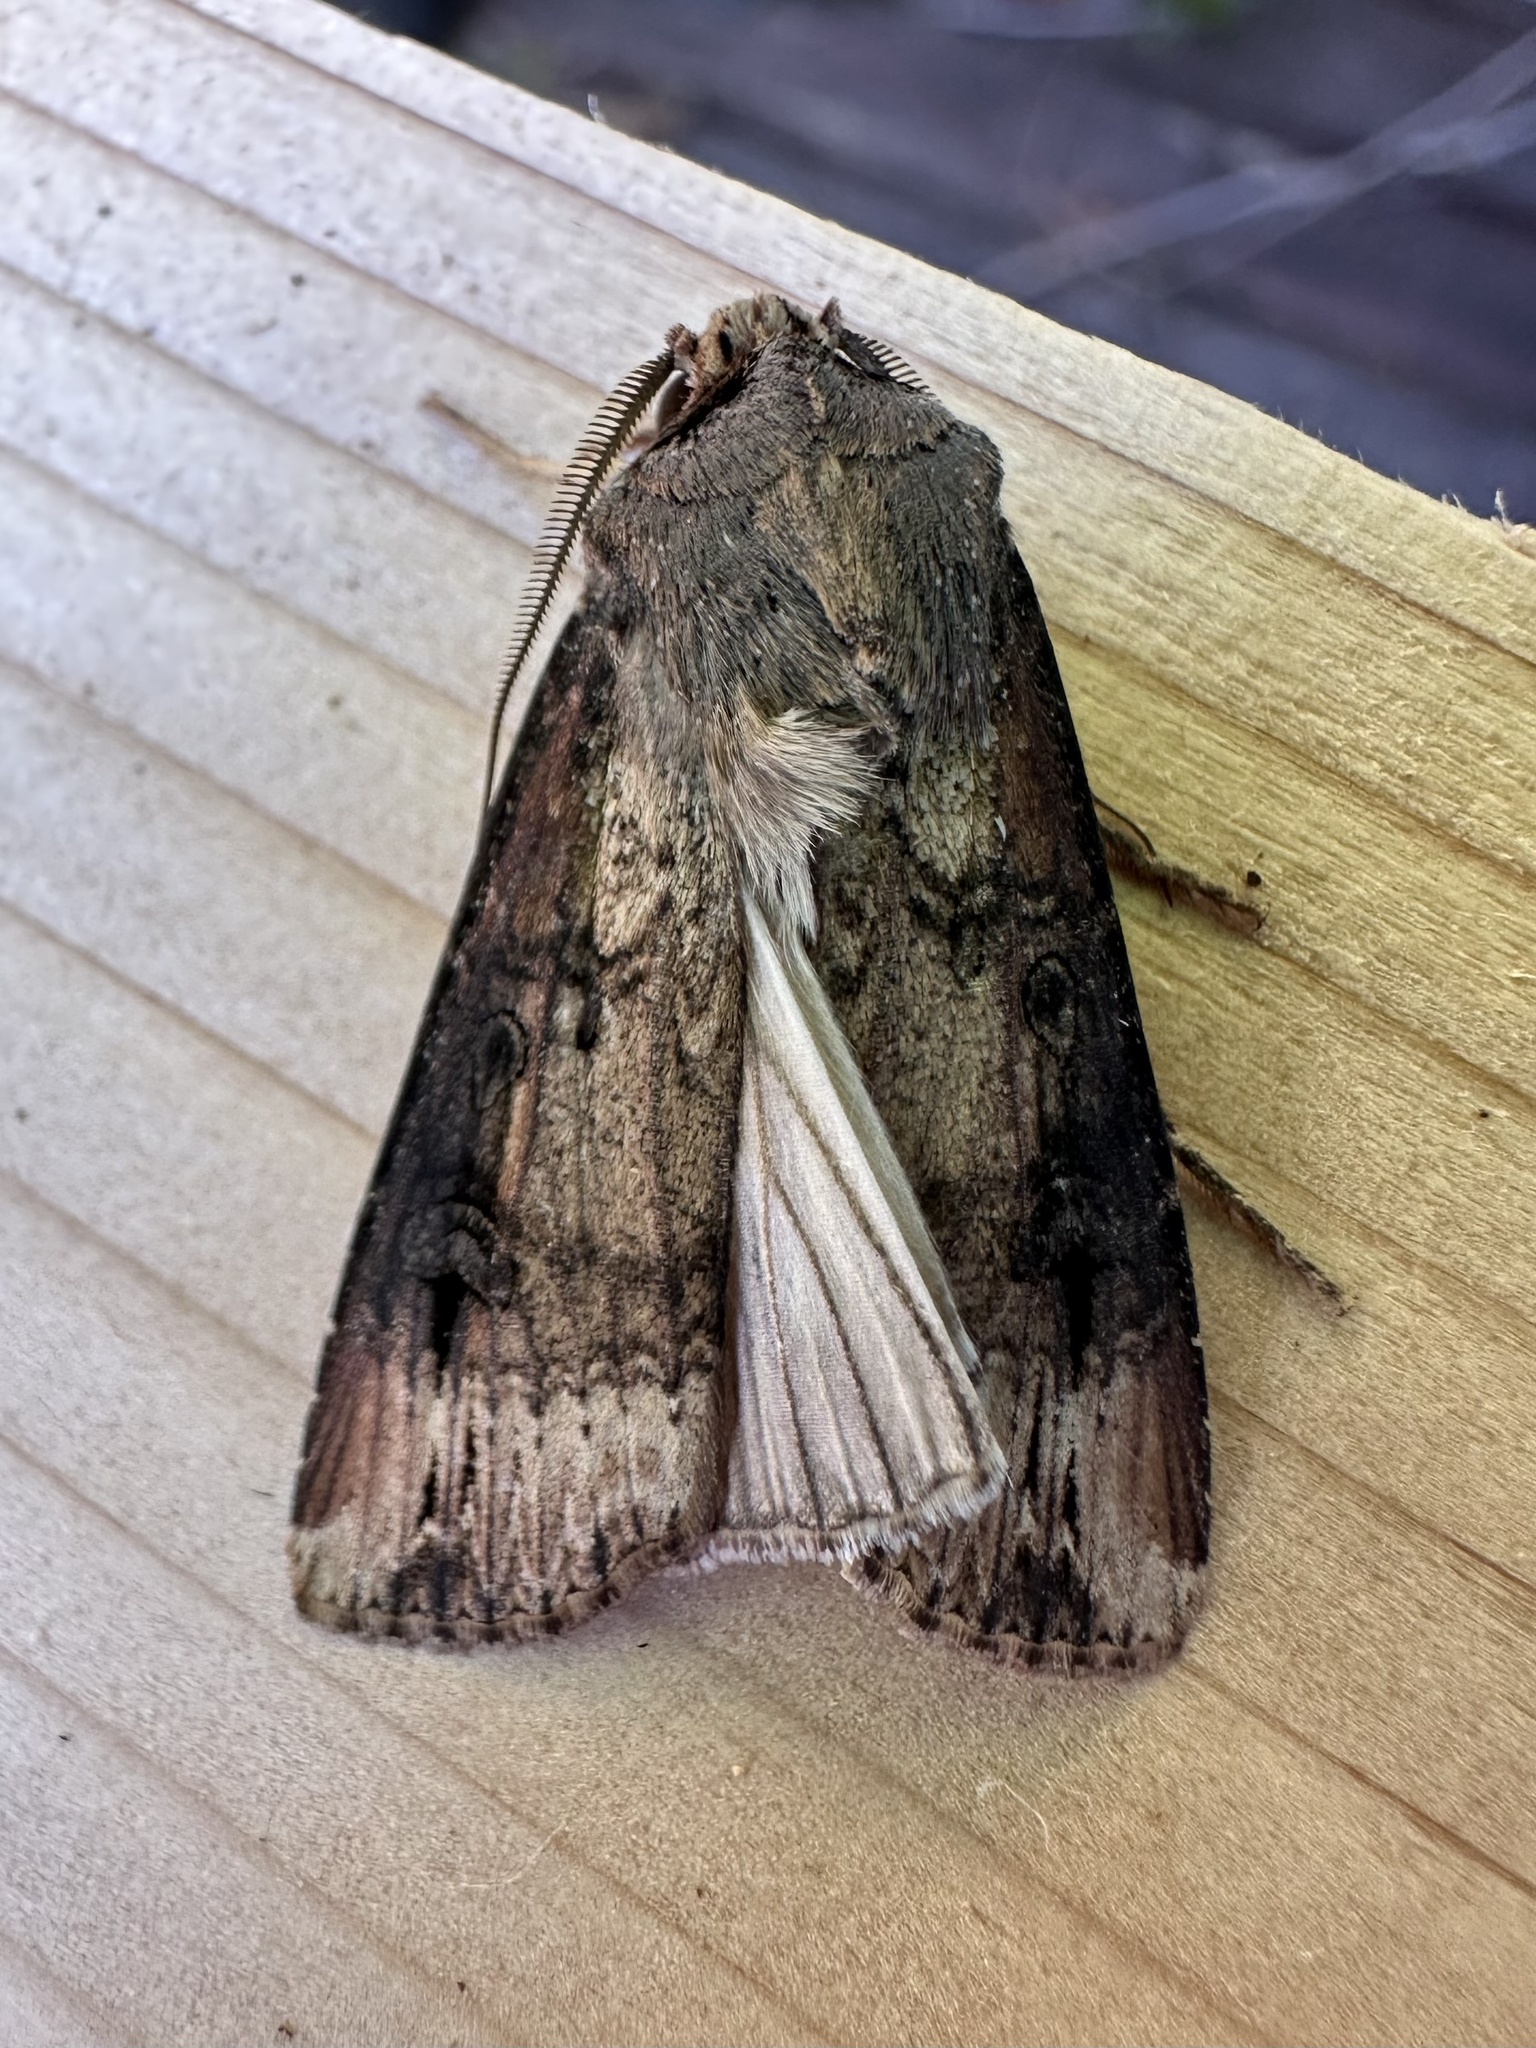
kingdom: Animalia
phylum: Arthropoda
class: Insecta
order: Lepidoptera
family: Noctuidae
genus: Agrotis
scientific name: Agrotis ipsilon
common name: Dark sword-grass
